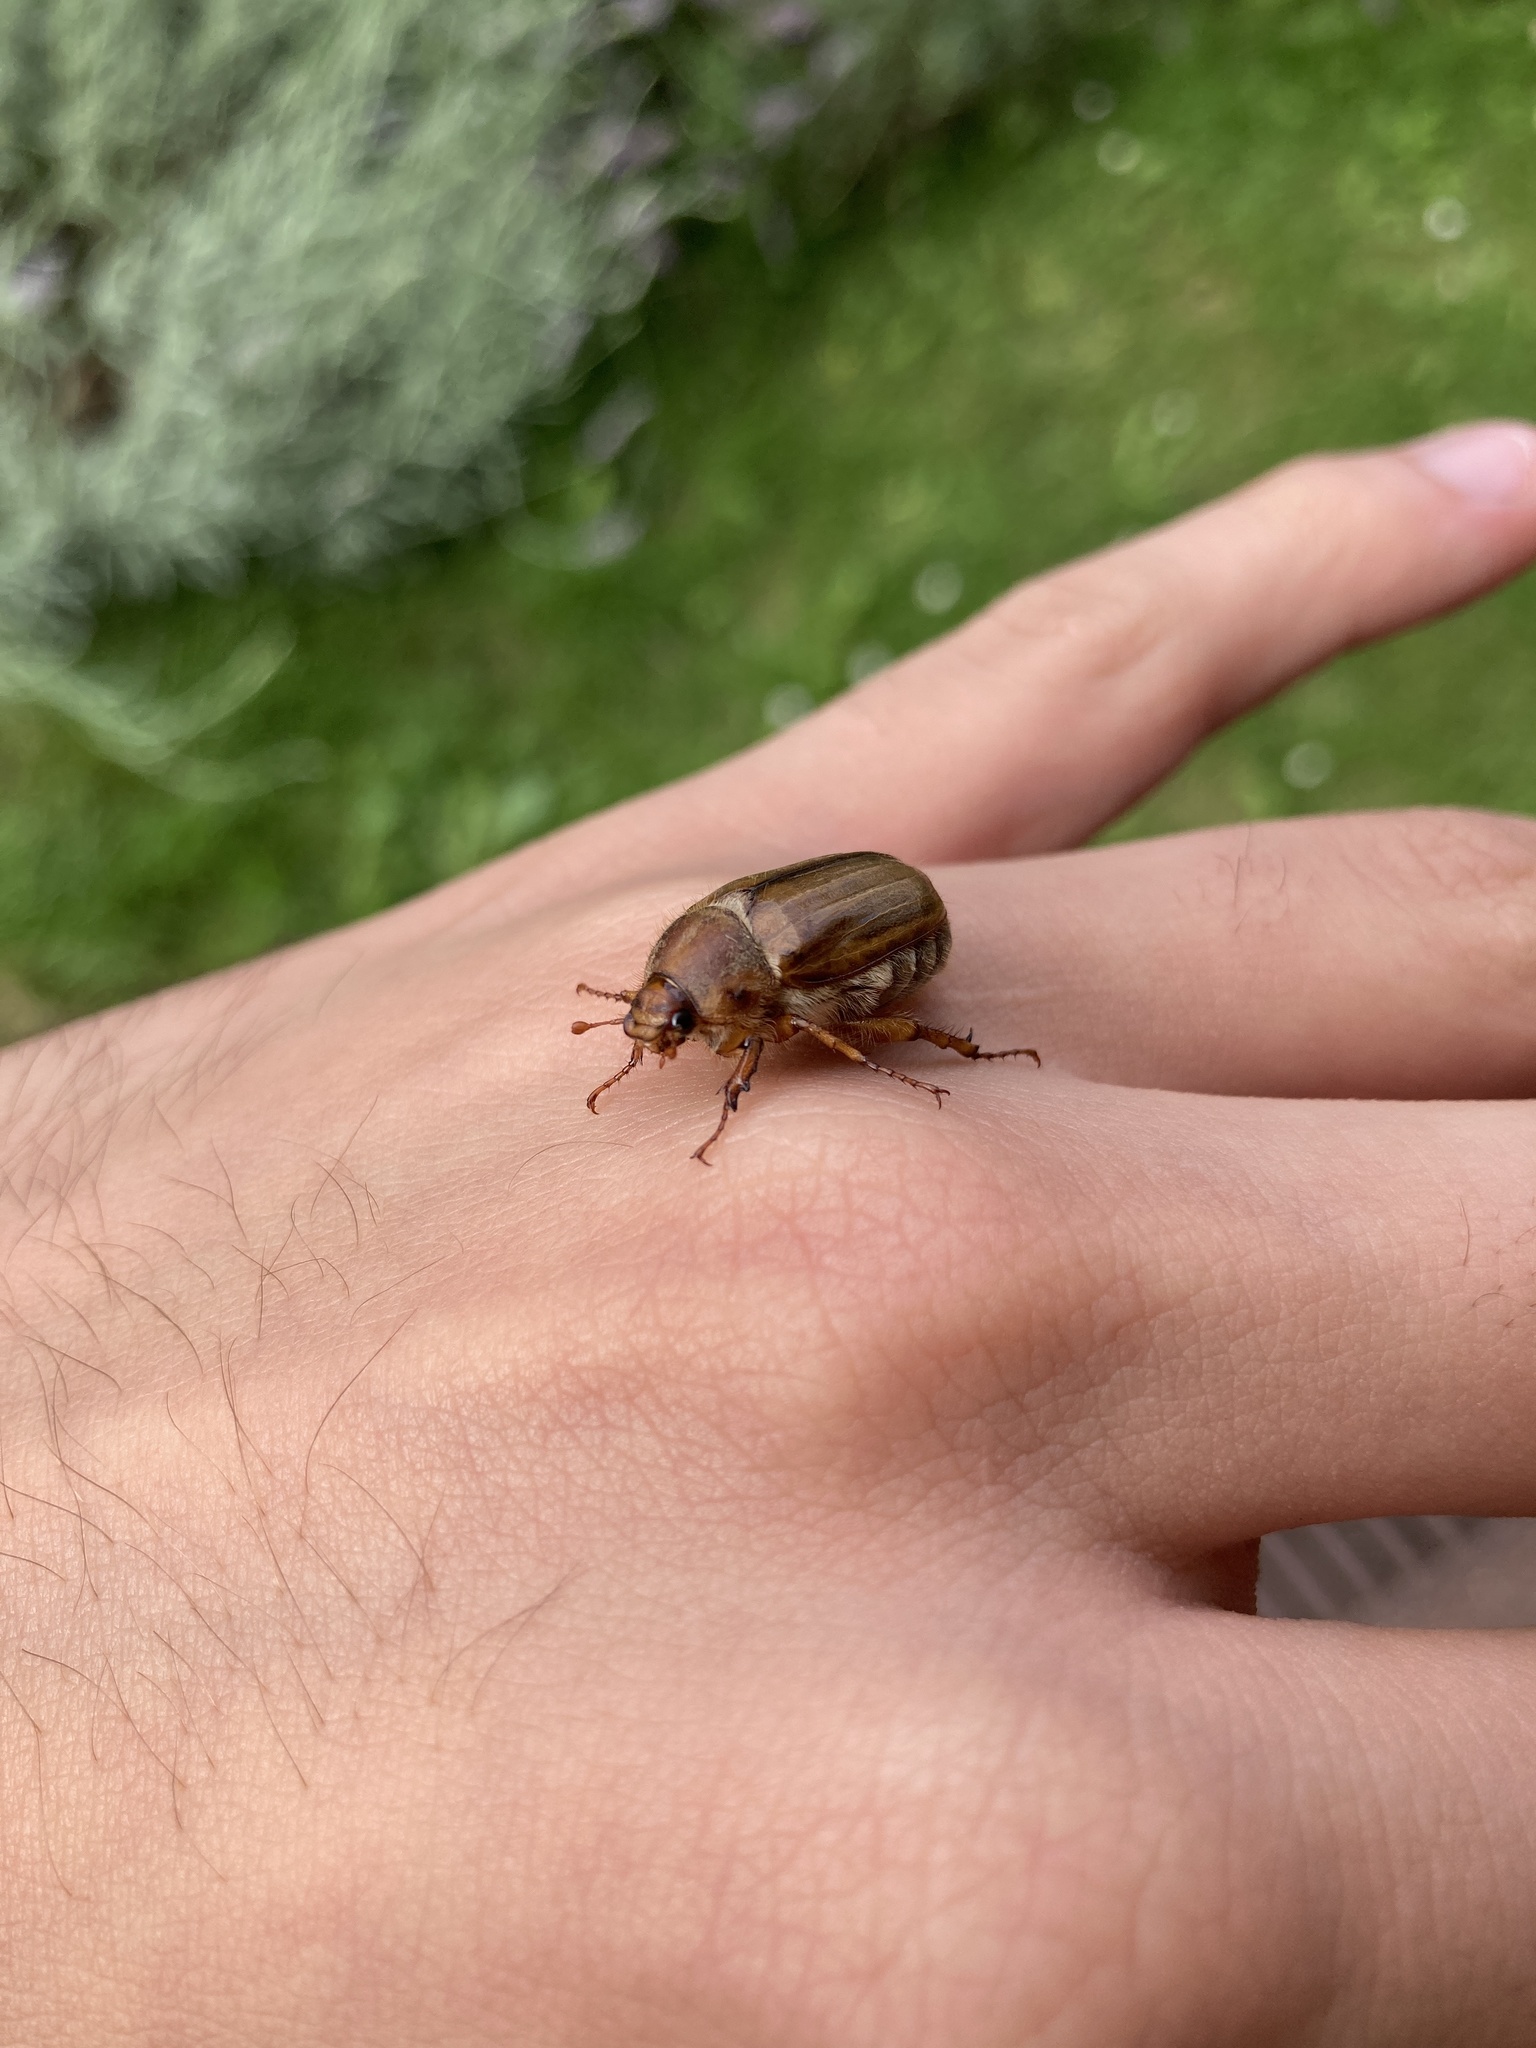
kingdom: Animalia
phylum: Arthropoda
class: Insecta
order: Coleoptera
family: Scarabaeidae
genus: Amphimallon
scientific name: Amphimallon solstitiale
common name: Summer chafer
